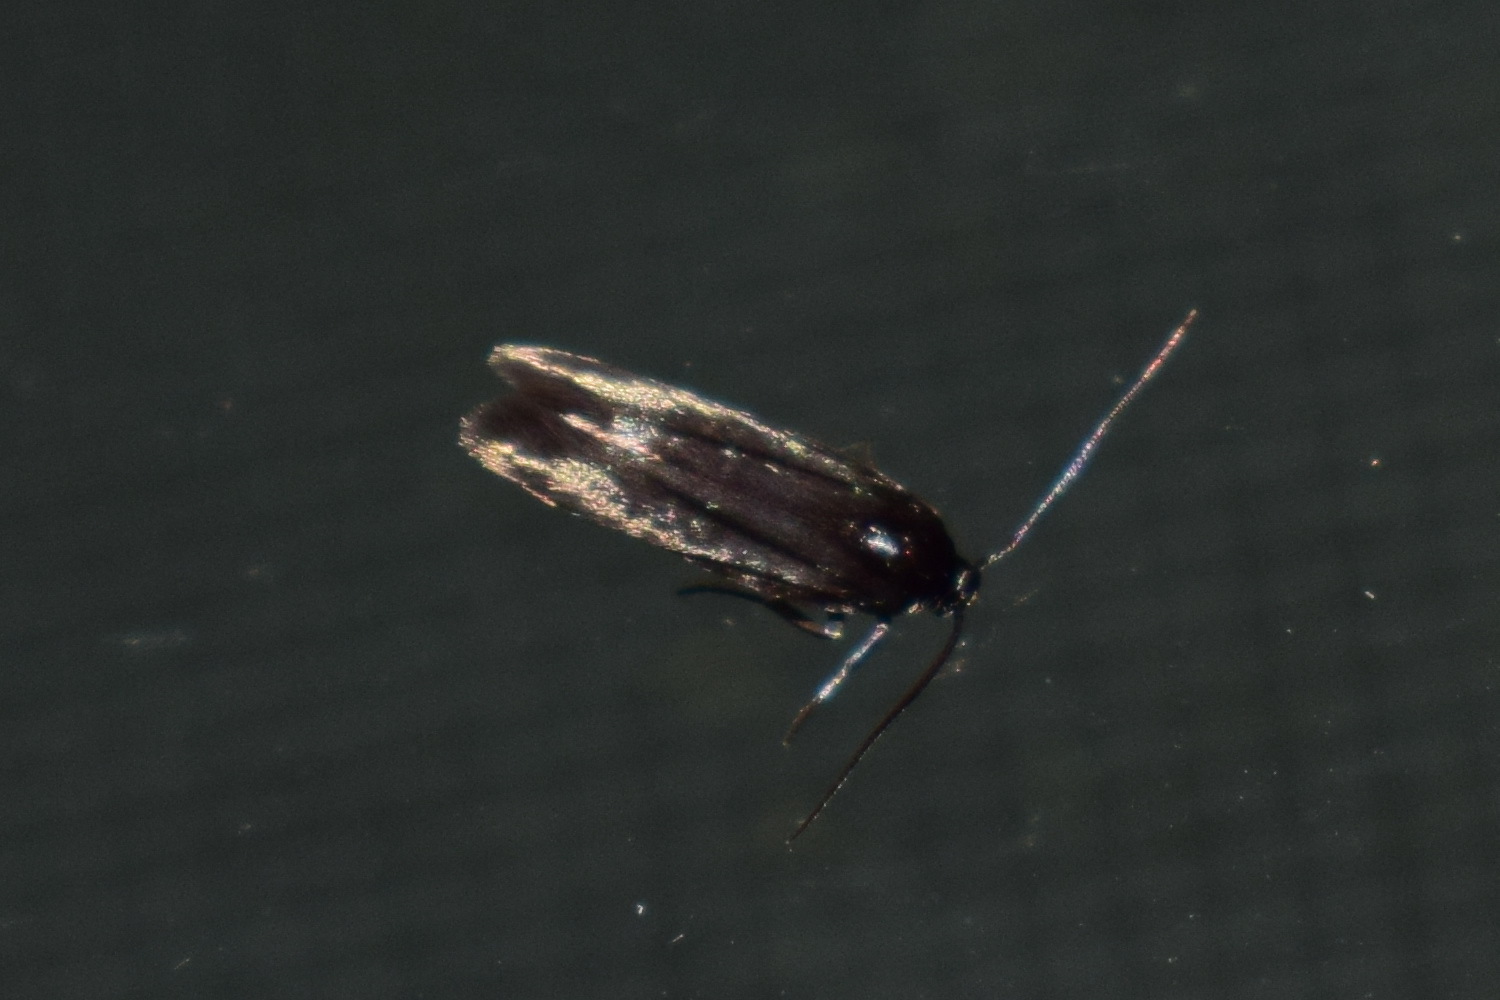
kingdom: Animalia
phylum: Arthropoda
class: Insecta
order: Lepidoptera
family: Scythrididae
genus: Scythris
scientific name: Scythris sinensis
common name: Kentish owlet
